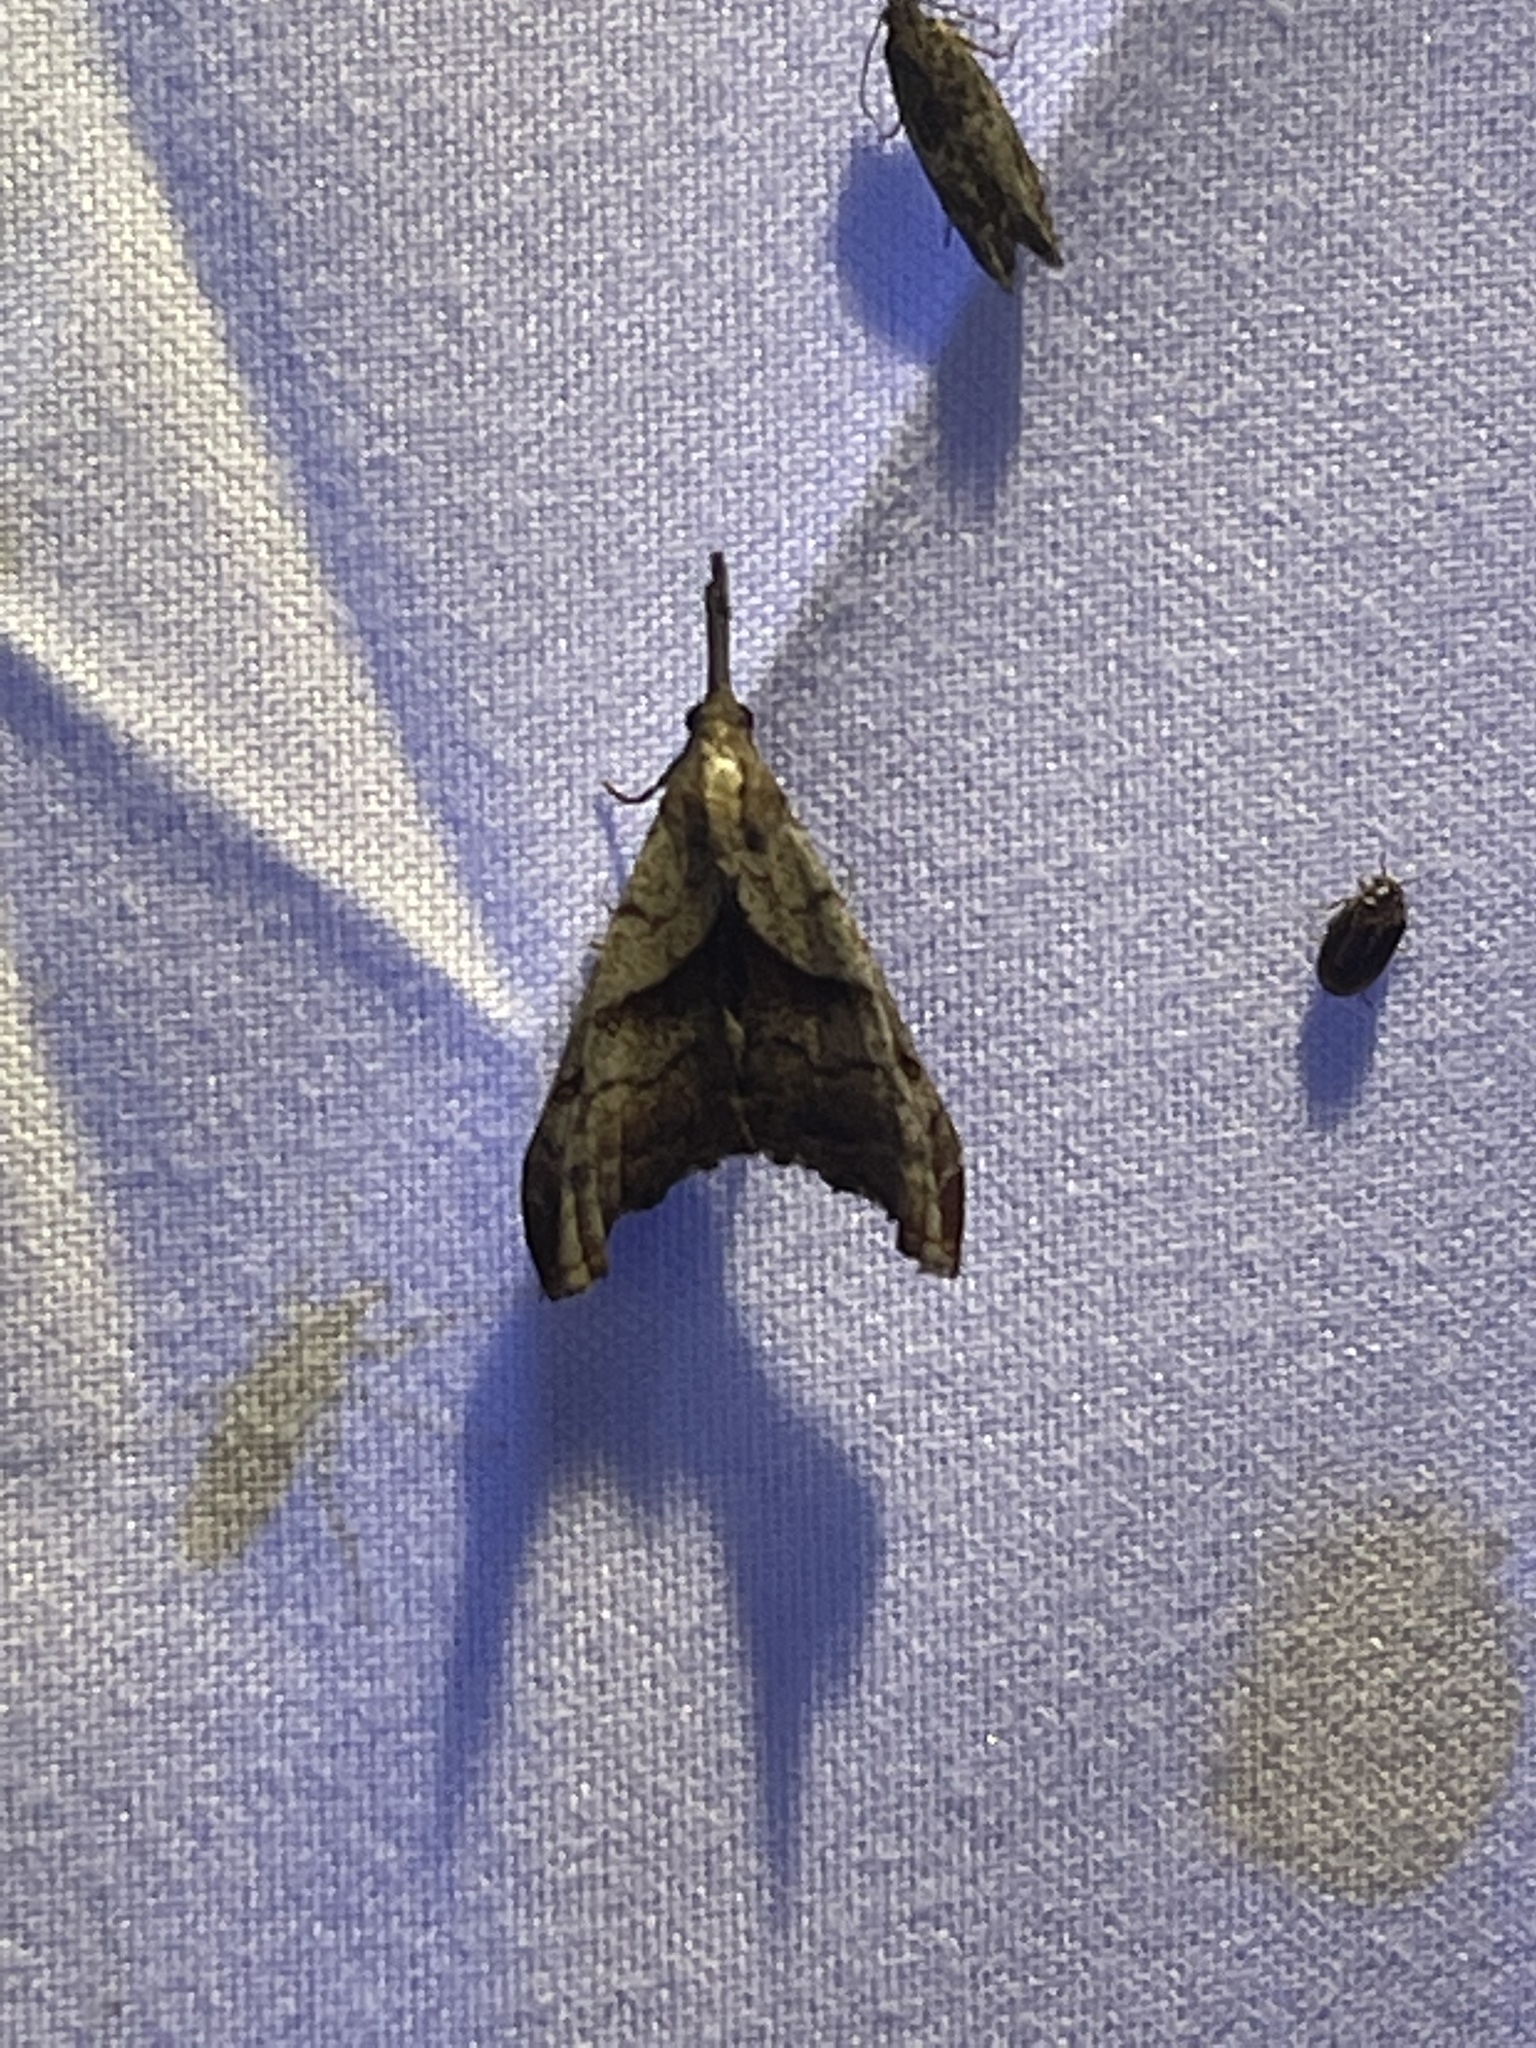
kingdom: Animalia
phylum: Arthropoda
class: Insecta
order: Lepidoptera
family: Erebidae
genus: Palthis
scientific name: Palthis angulalis
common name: Dark-spotted palthis moth
